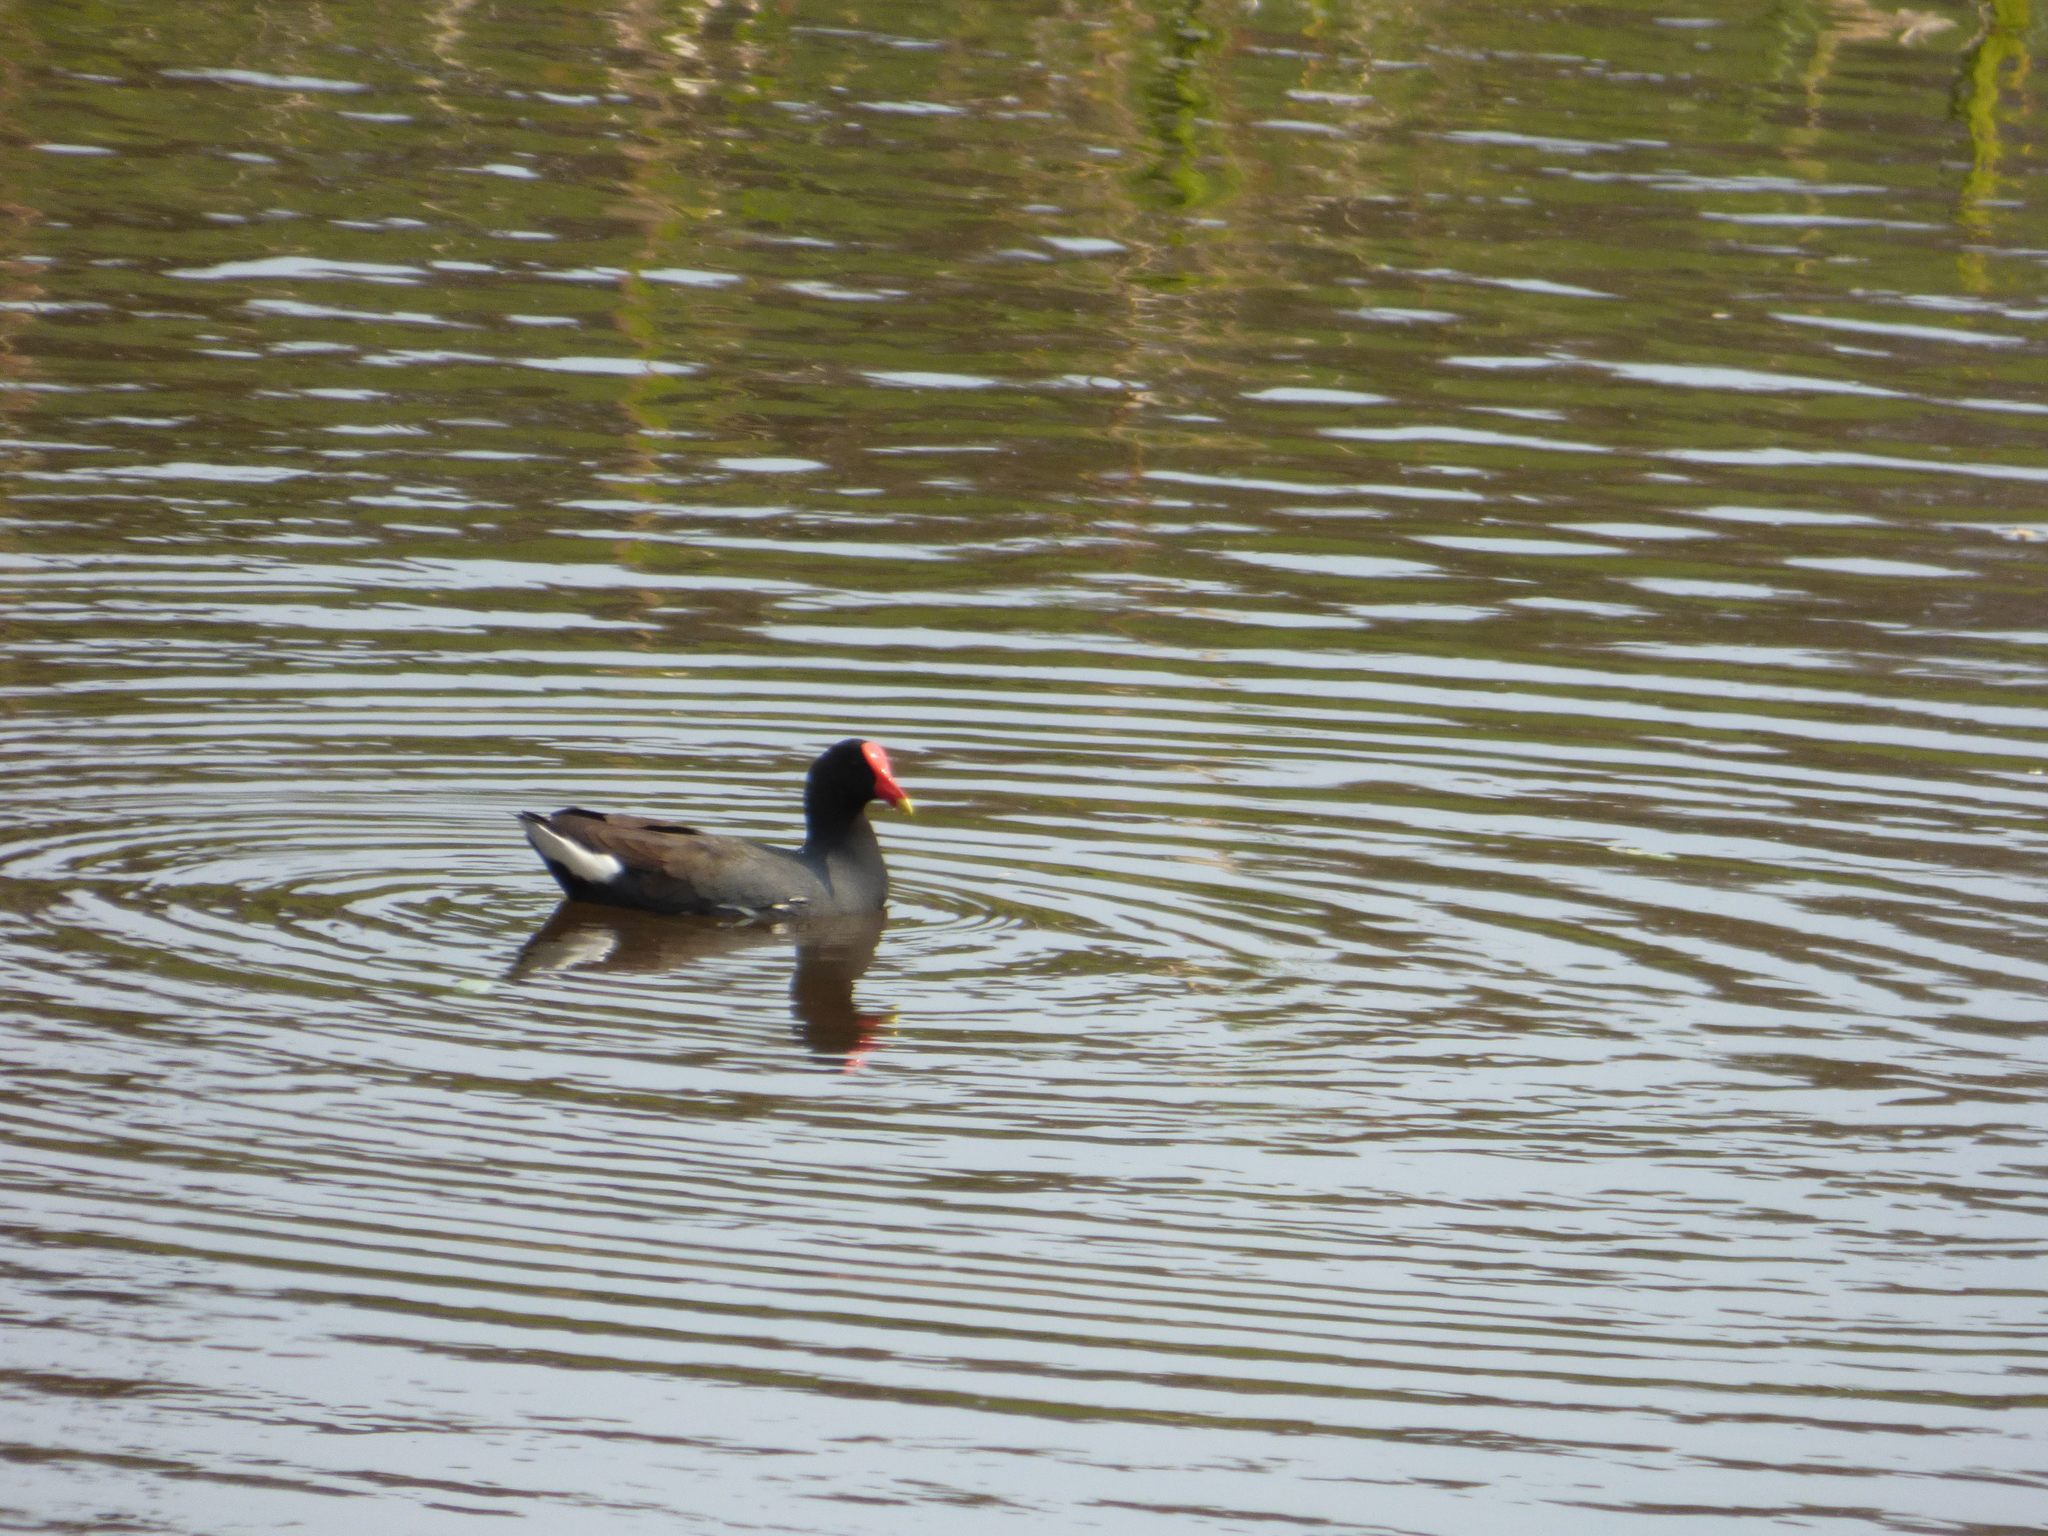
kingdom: Animalia
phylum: Chordata
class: Aves
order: Gruiformes
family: Rallidae
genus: Gallinula
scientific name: Gallinula chloropus
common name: Common moorhen
